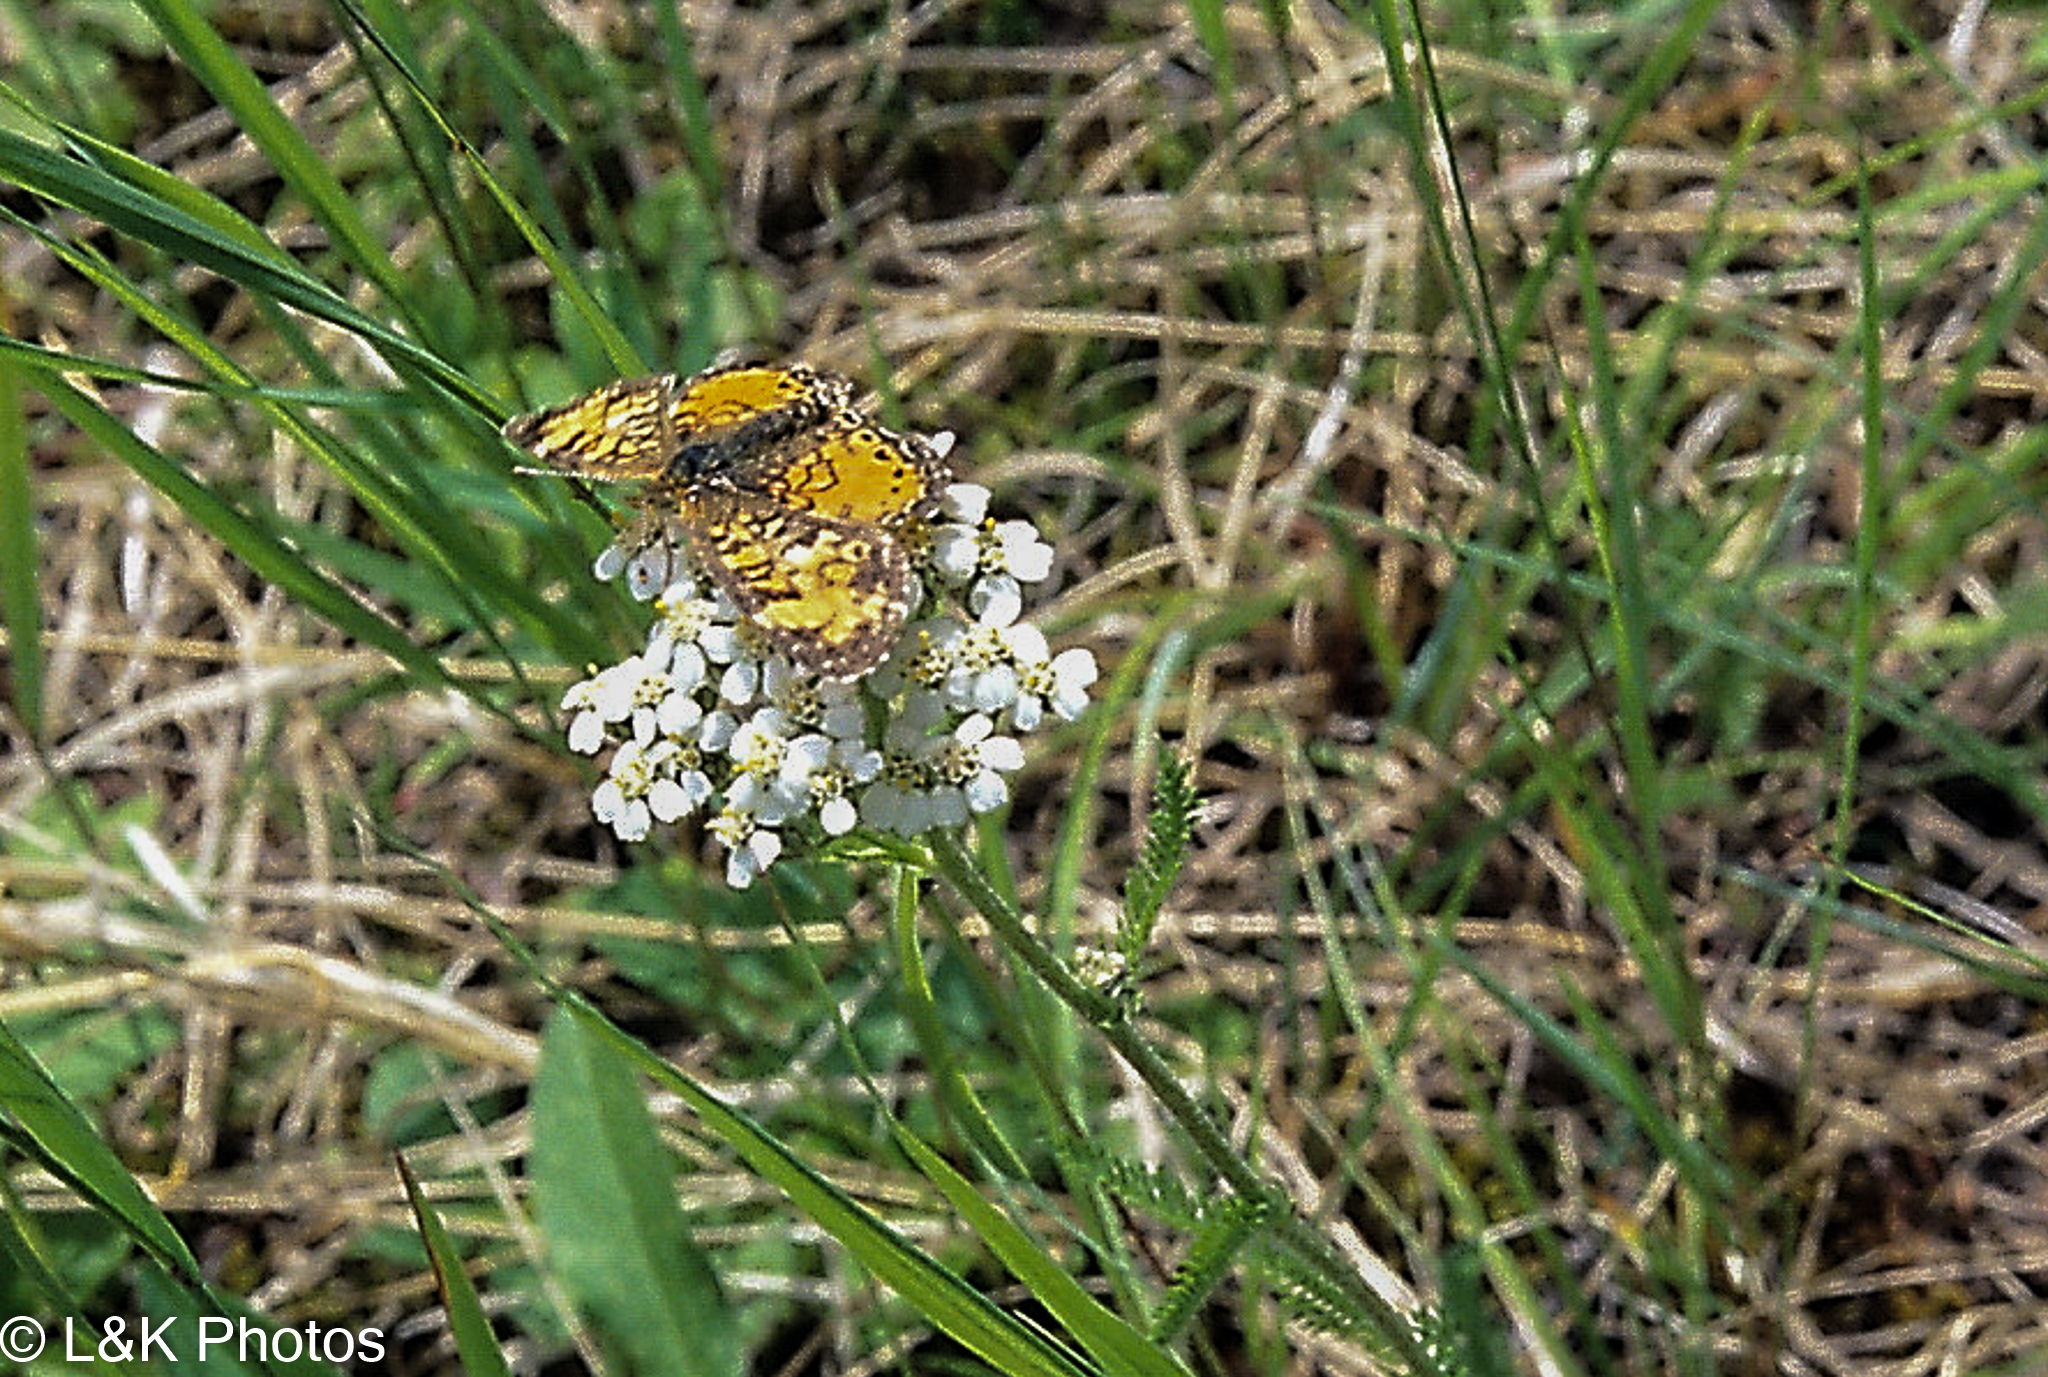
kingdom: Animalia
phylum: Arthropoda
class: Insecta
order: Lepidoptera
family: Nymphalidae
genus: Phyciodes
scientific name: Phyciodes tharos
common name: Pearl crescent
